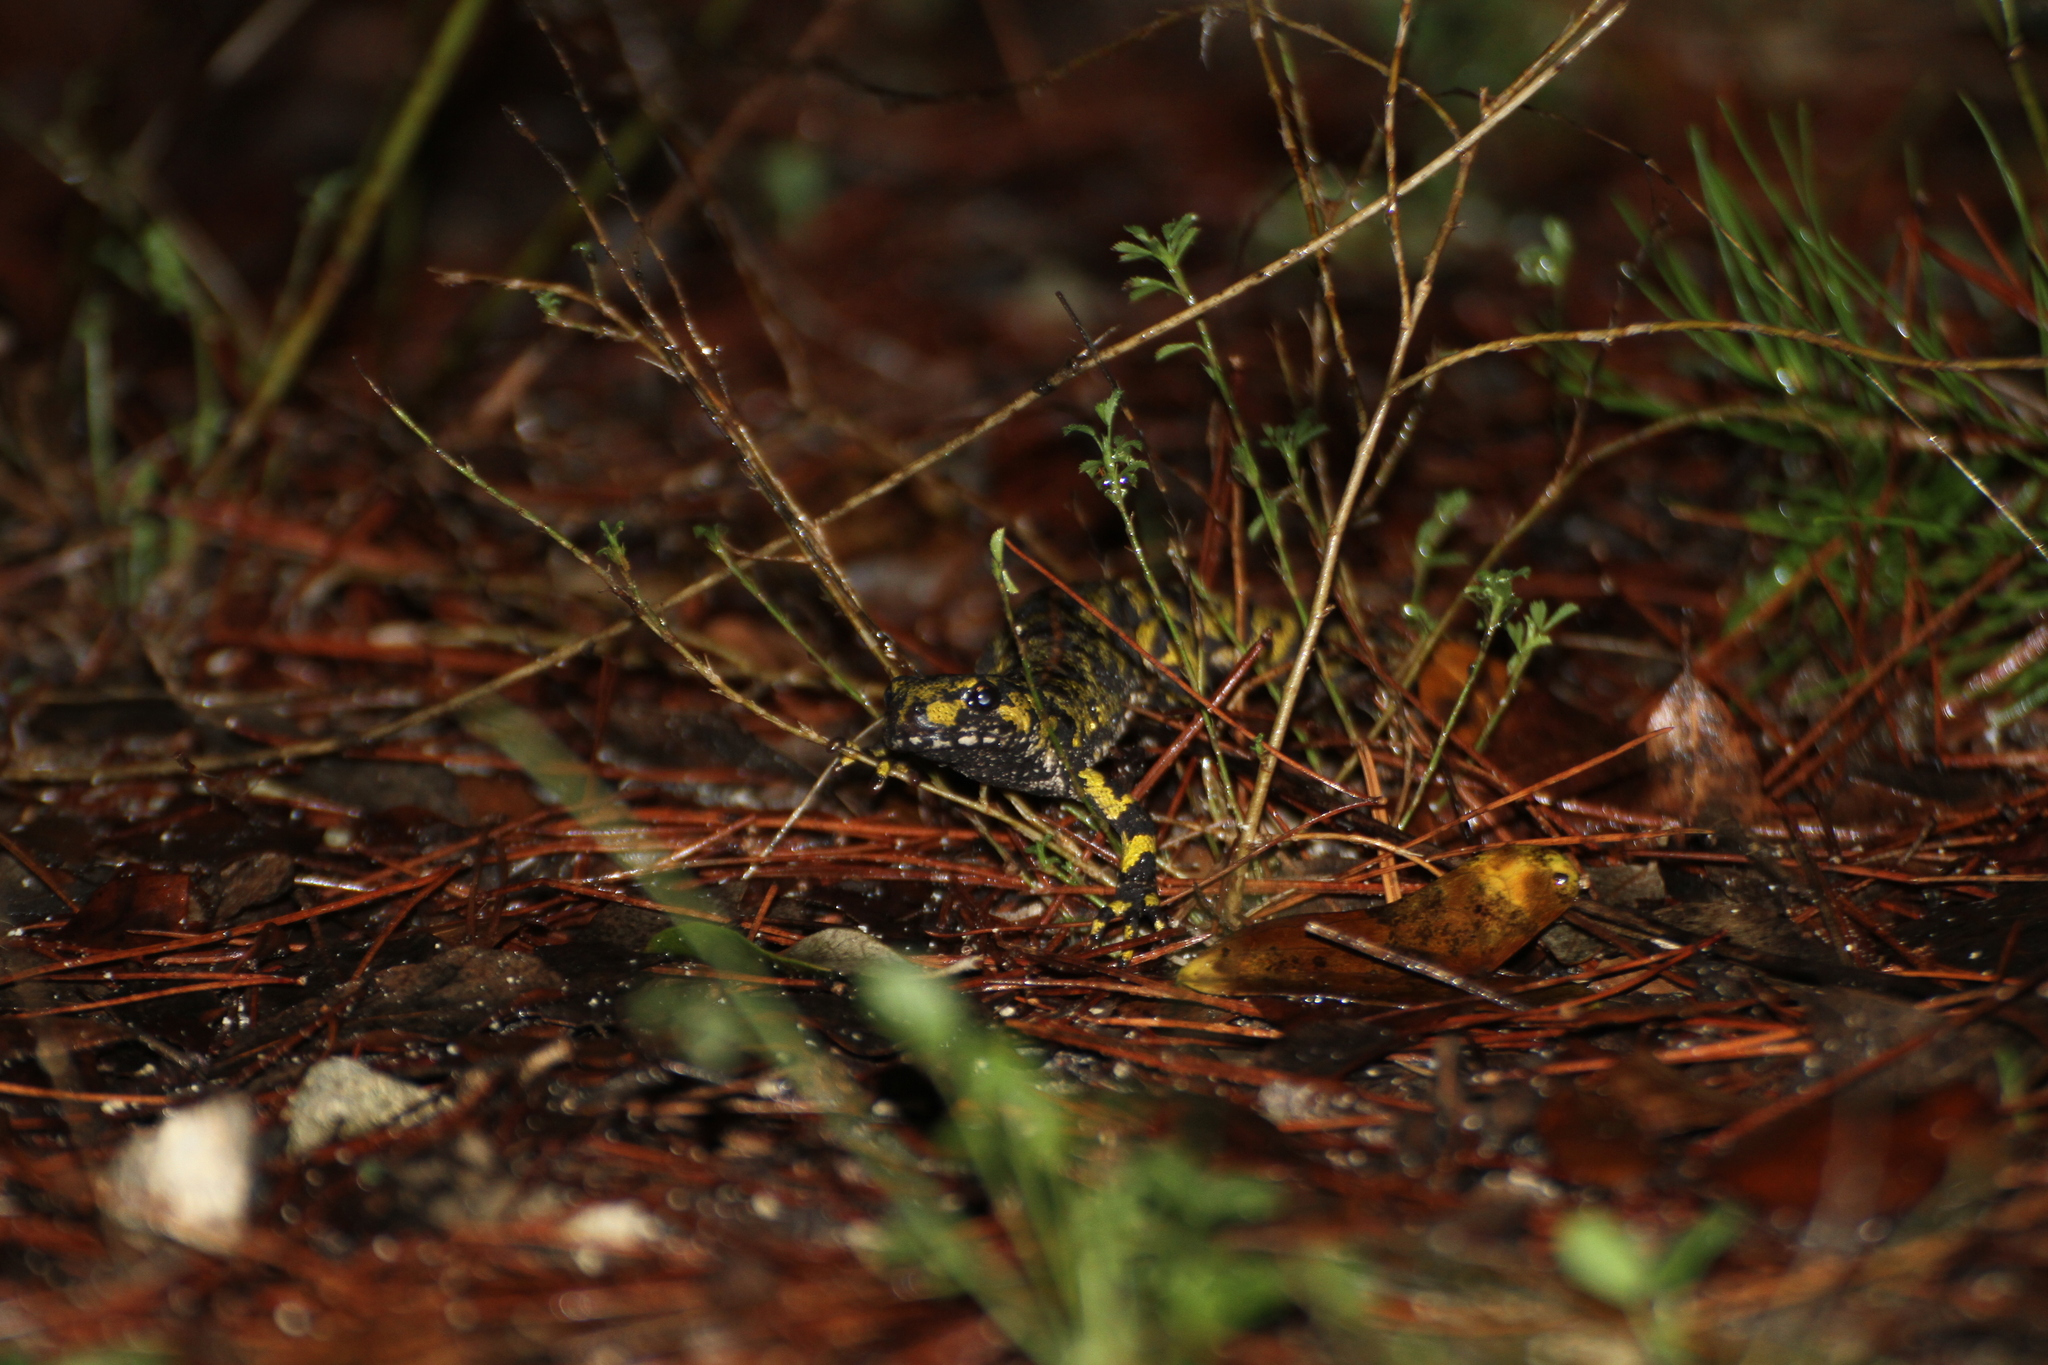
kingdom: Animalia
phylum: Chordata
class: Amphibia
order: Caudata
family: Salamandridae
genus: Triturus
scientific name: Triturus marmoratus
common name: Marbled newt
